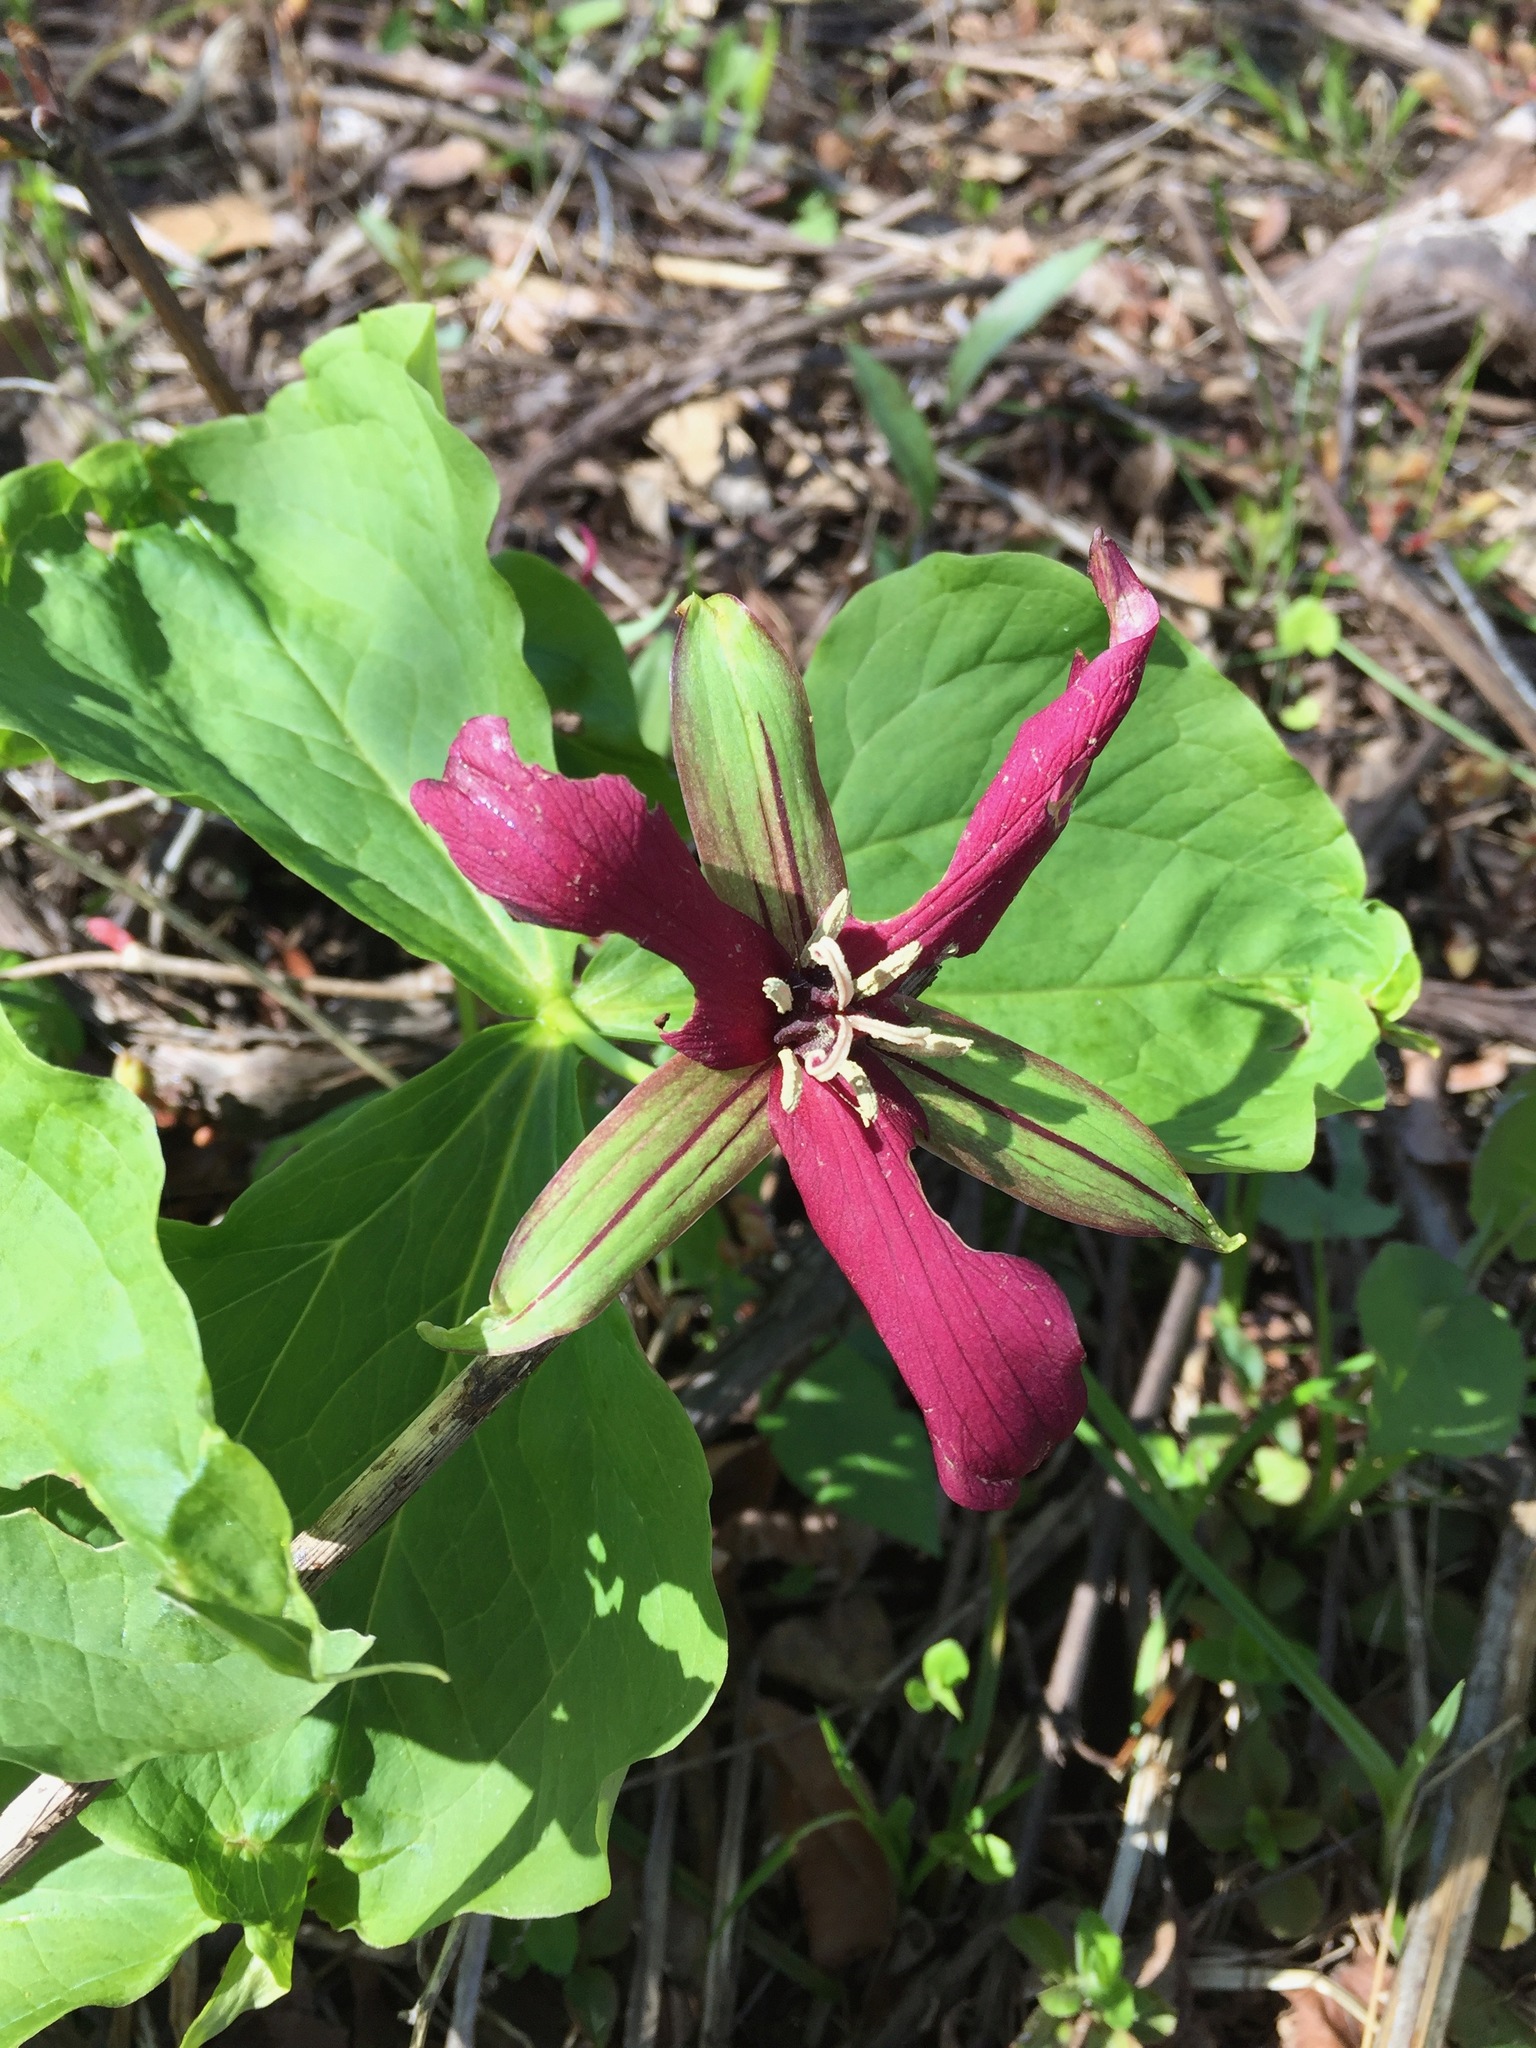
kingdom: Plantae
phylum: Tracheophyta
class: Liliopsida
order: Liliales
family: Melanthiaceae
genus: Trillium
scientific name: Trillium erectum
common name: Purple trillium
